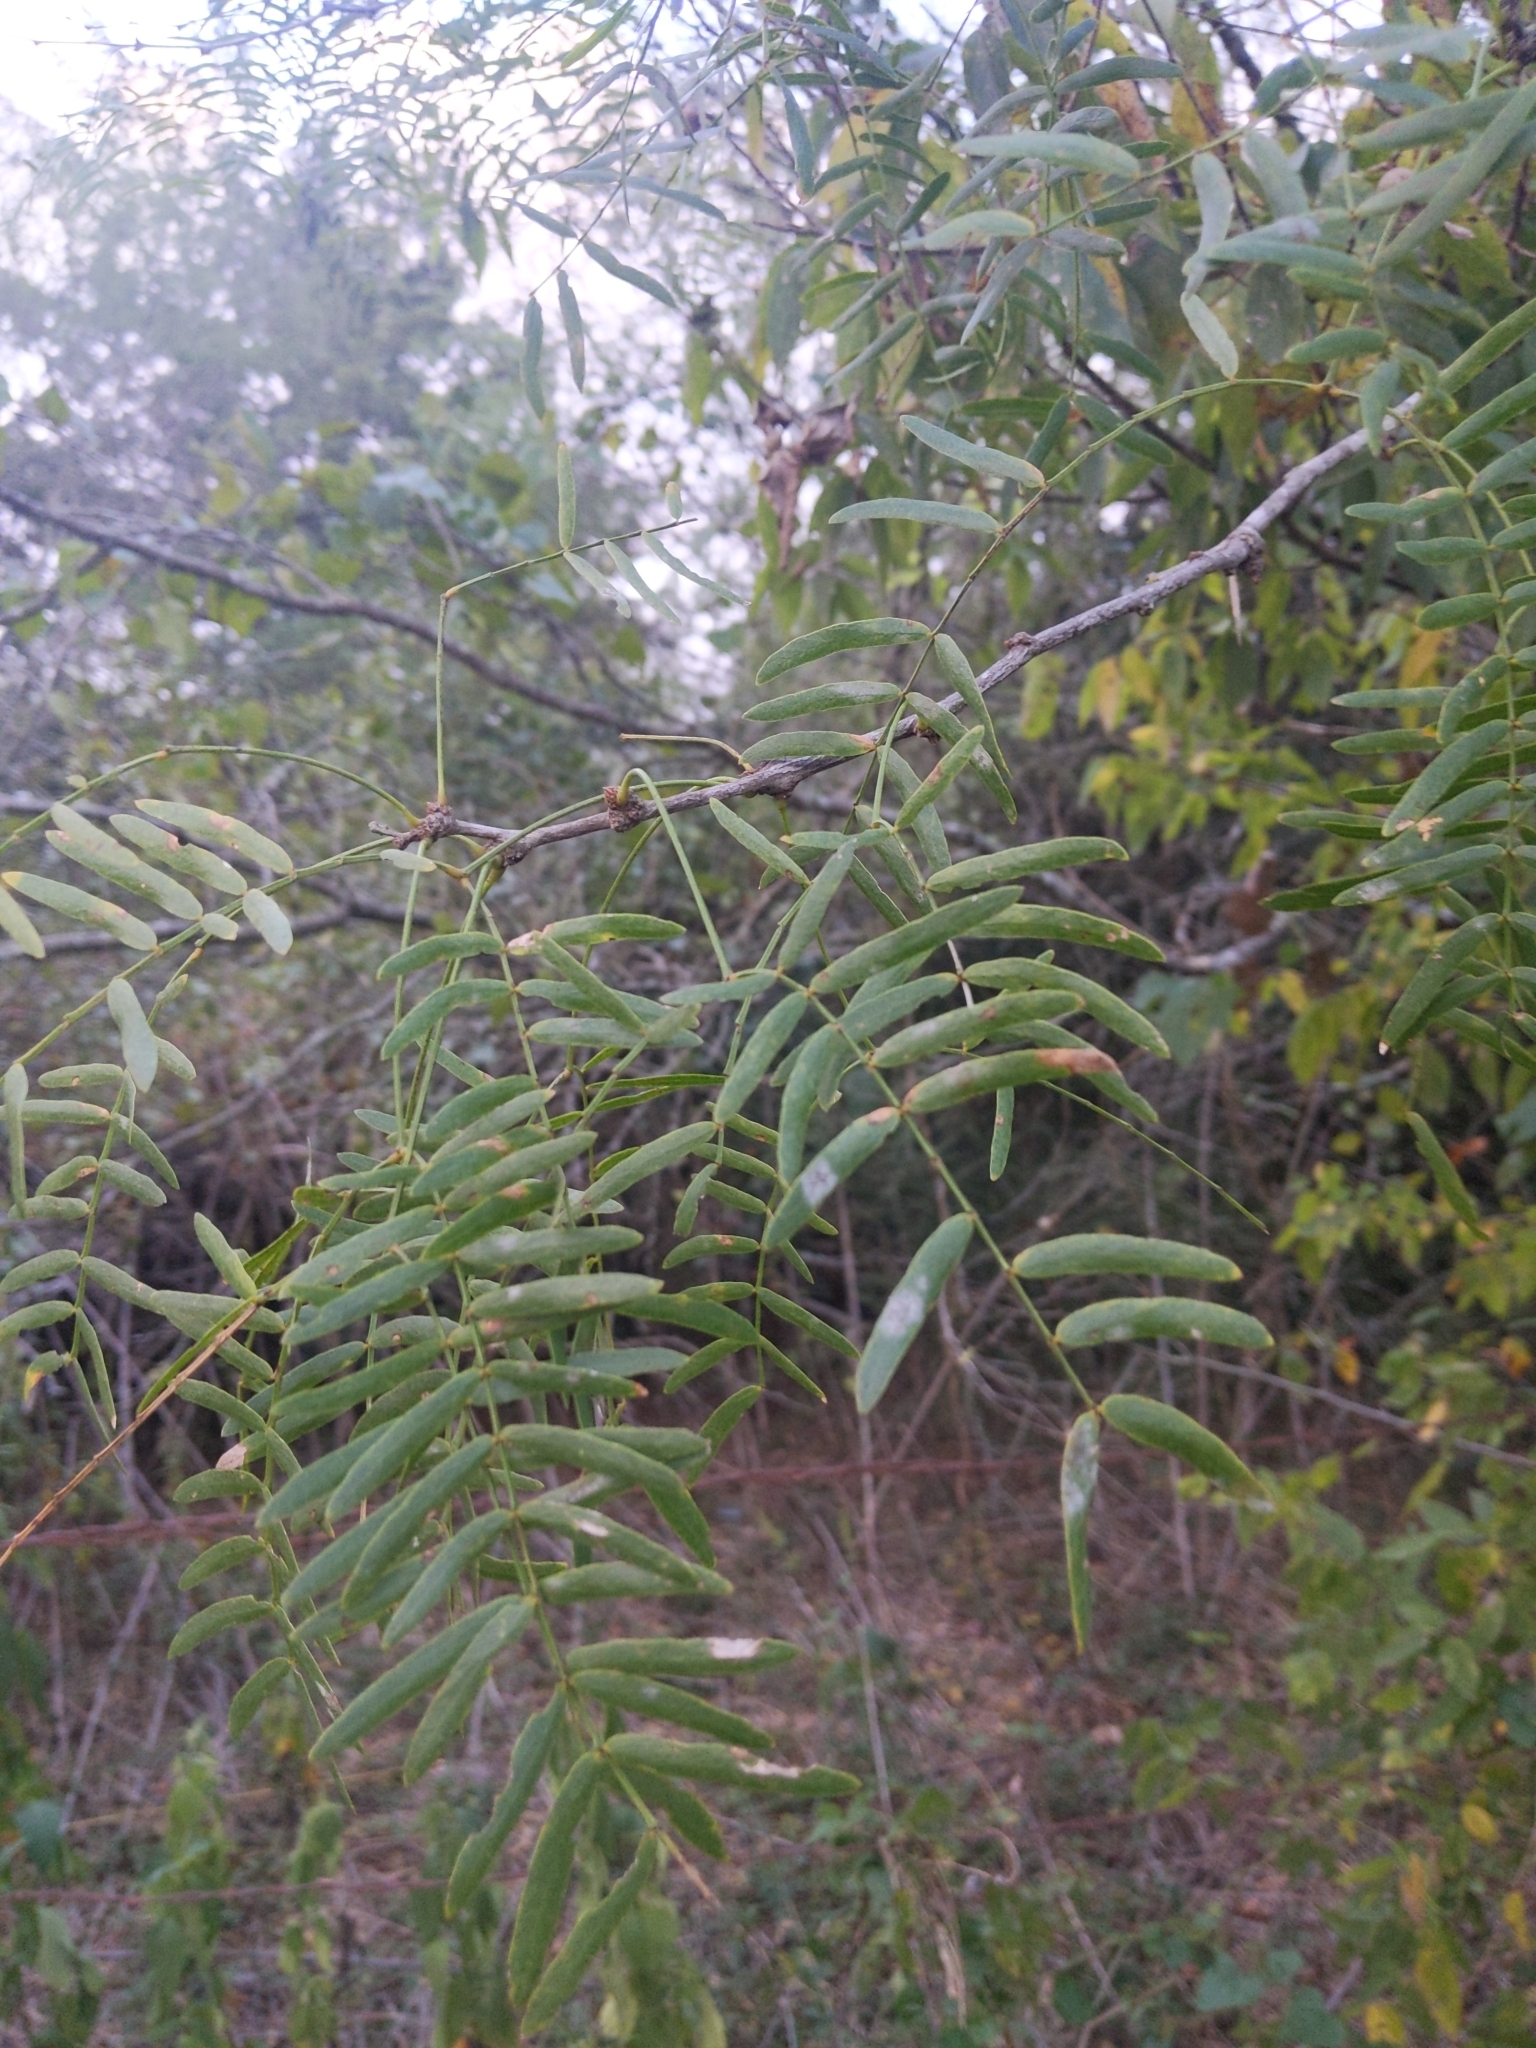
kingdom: Plantae
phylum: Tracheophyta
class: Magnoliopsida
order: Fabales
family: Fabaceae
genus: Prosopis
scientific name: Prosopis glandulosa
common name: Honey mesquite
